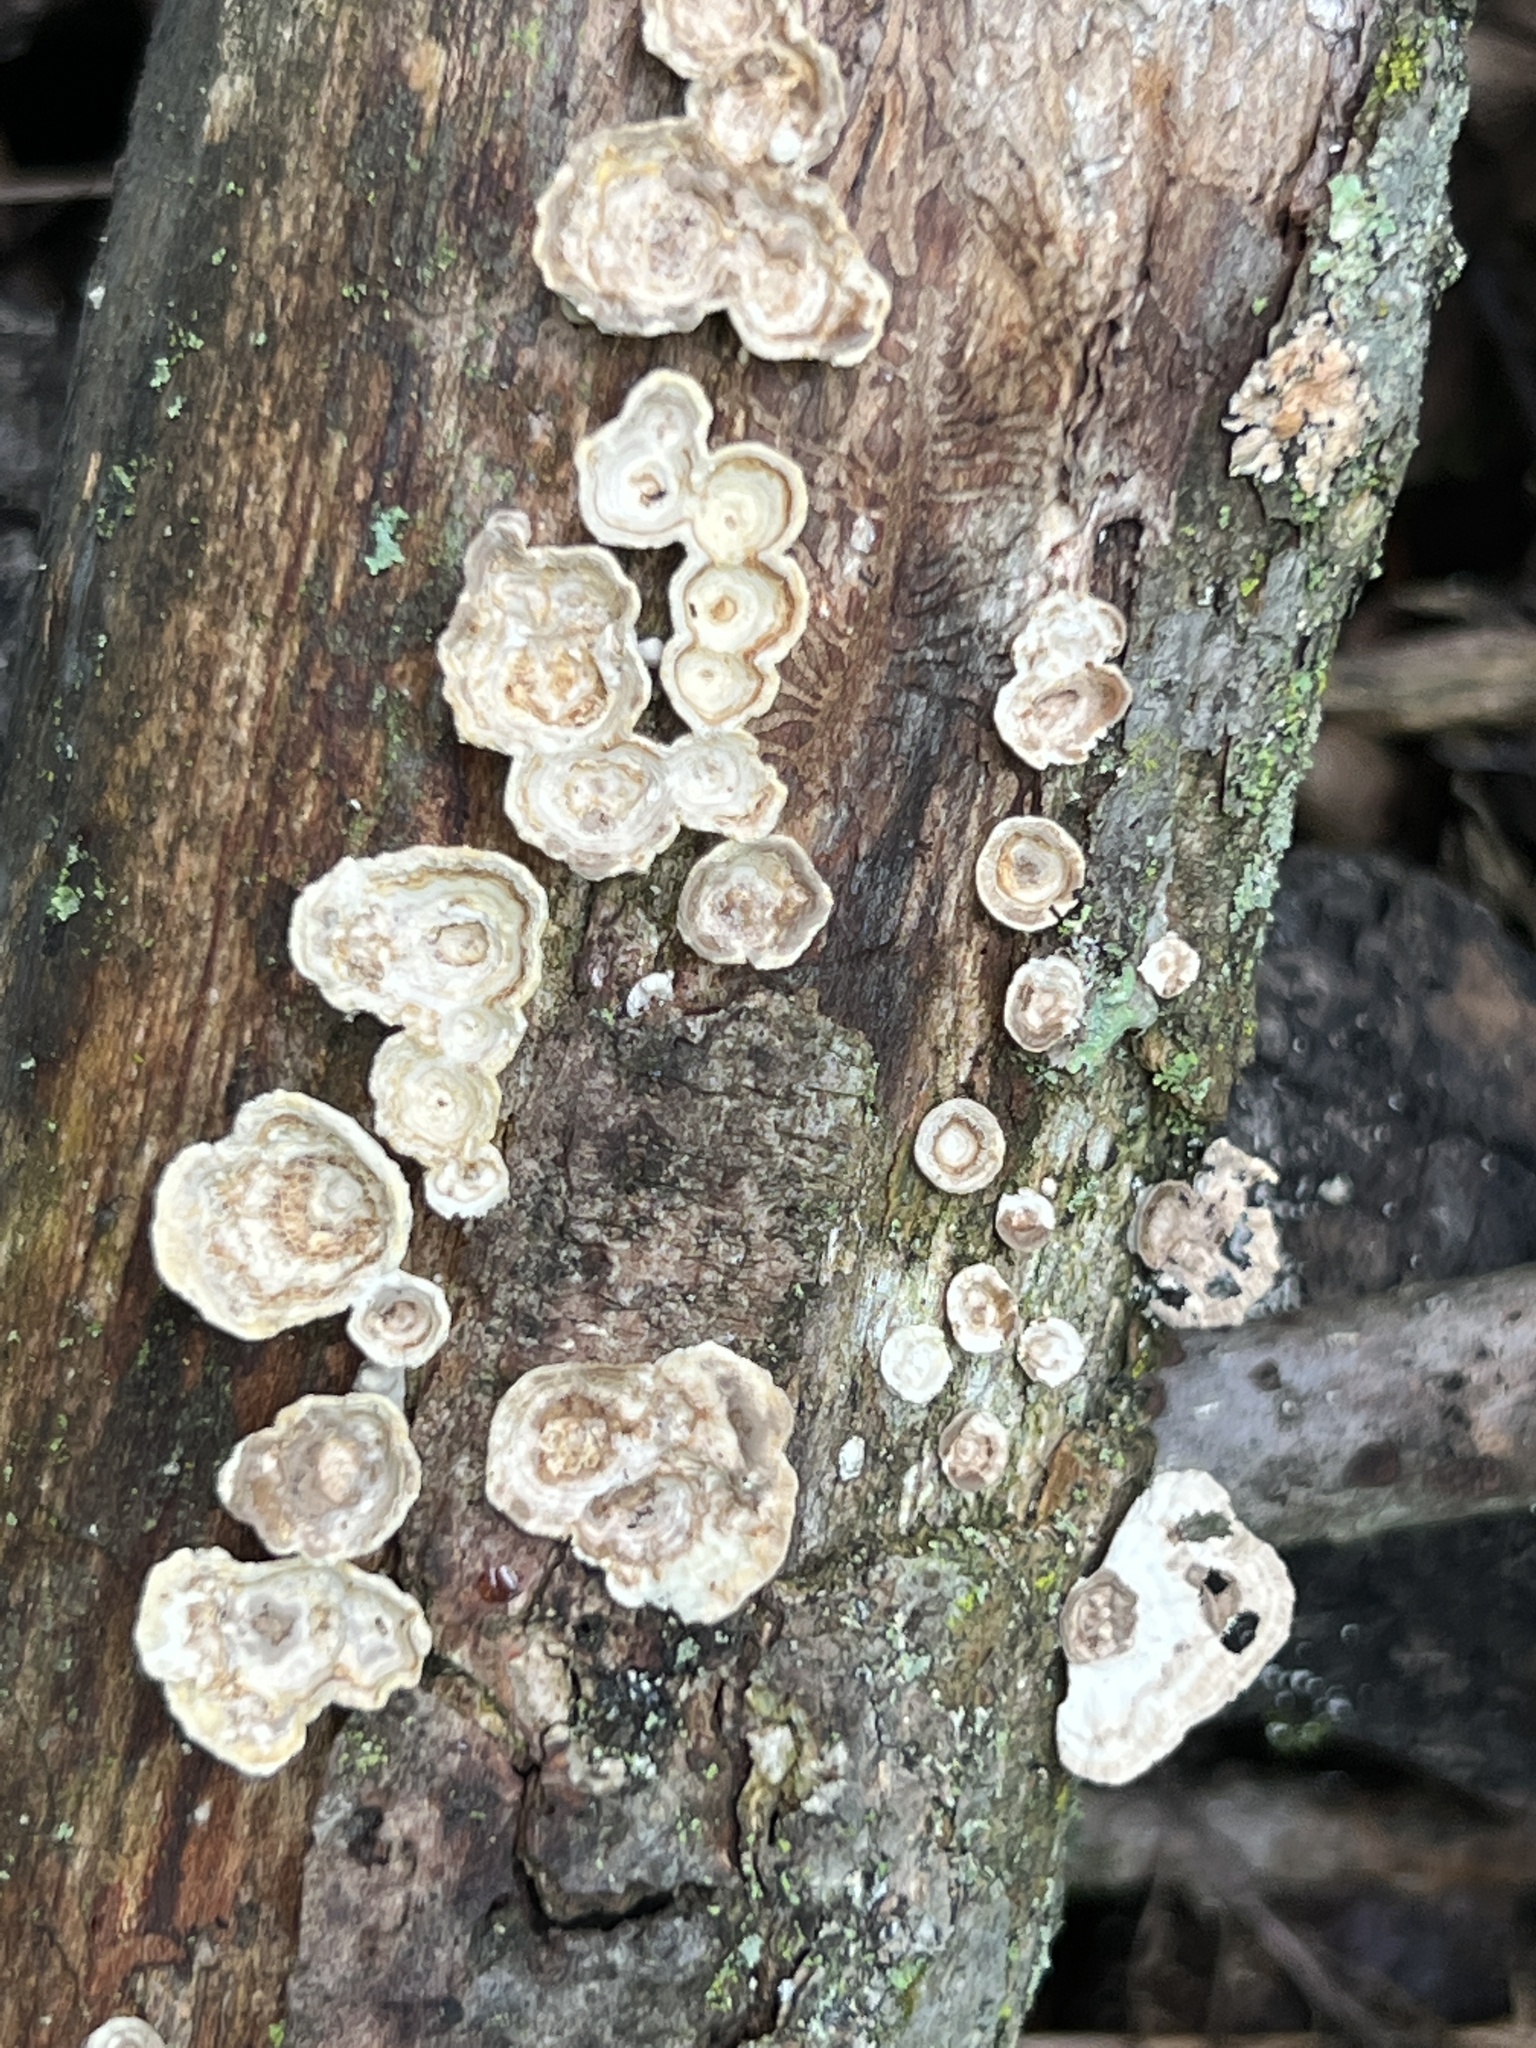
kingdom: Fungi
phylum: Basidiomycota
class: Agaricomycetes
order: Polyporales
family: Polyporaceae
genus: Poronidulus
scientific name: Poronidulus conchifer
